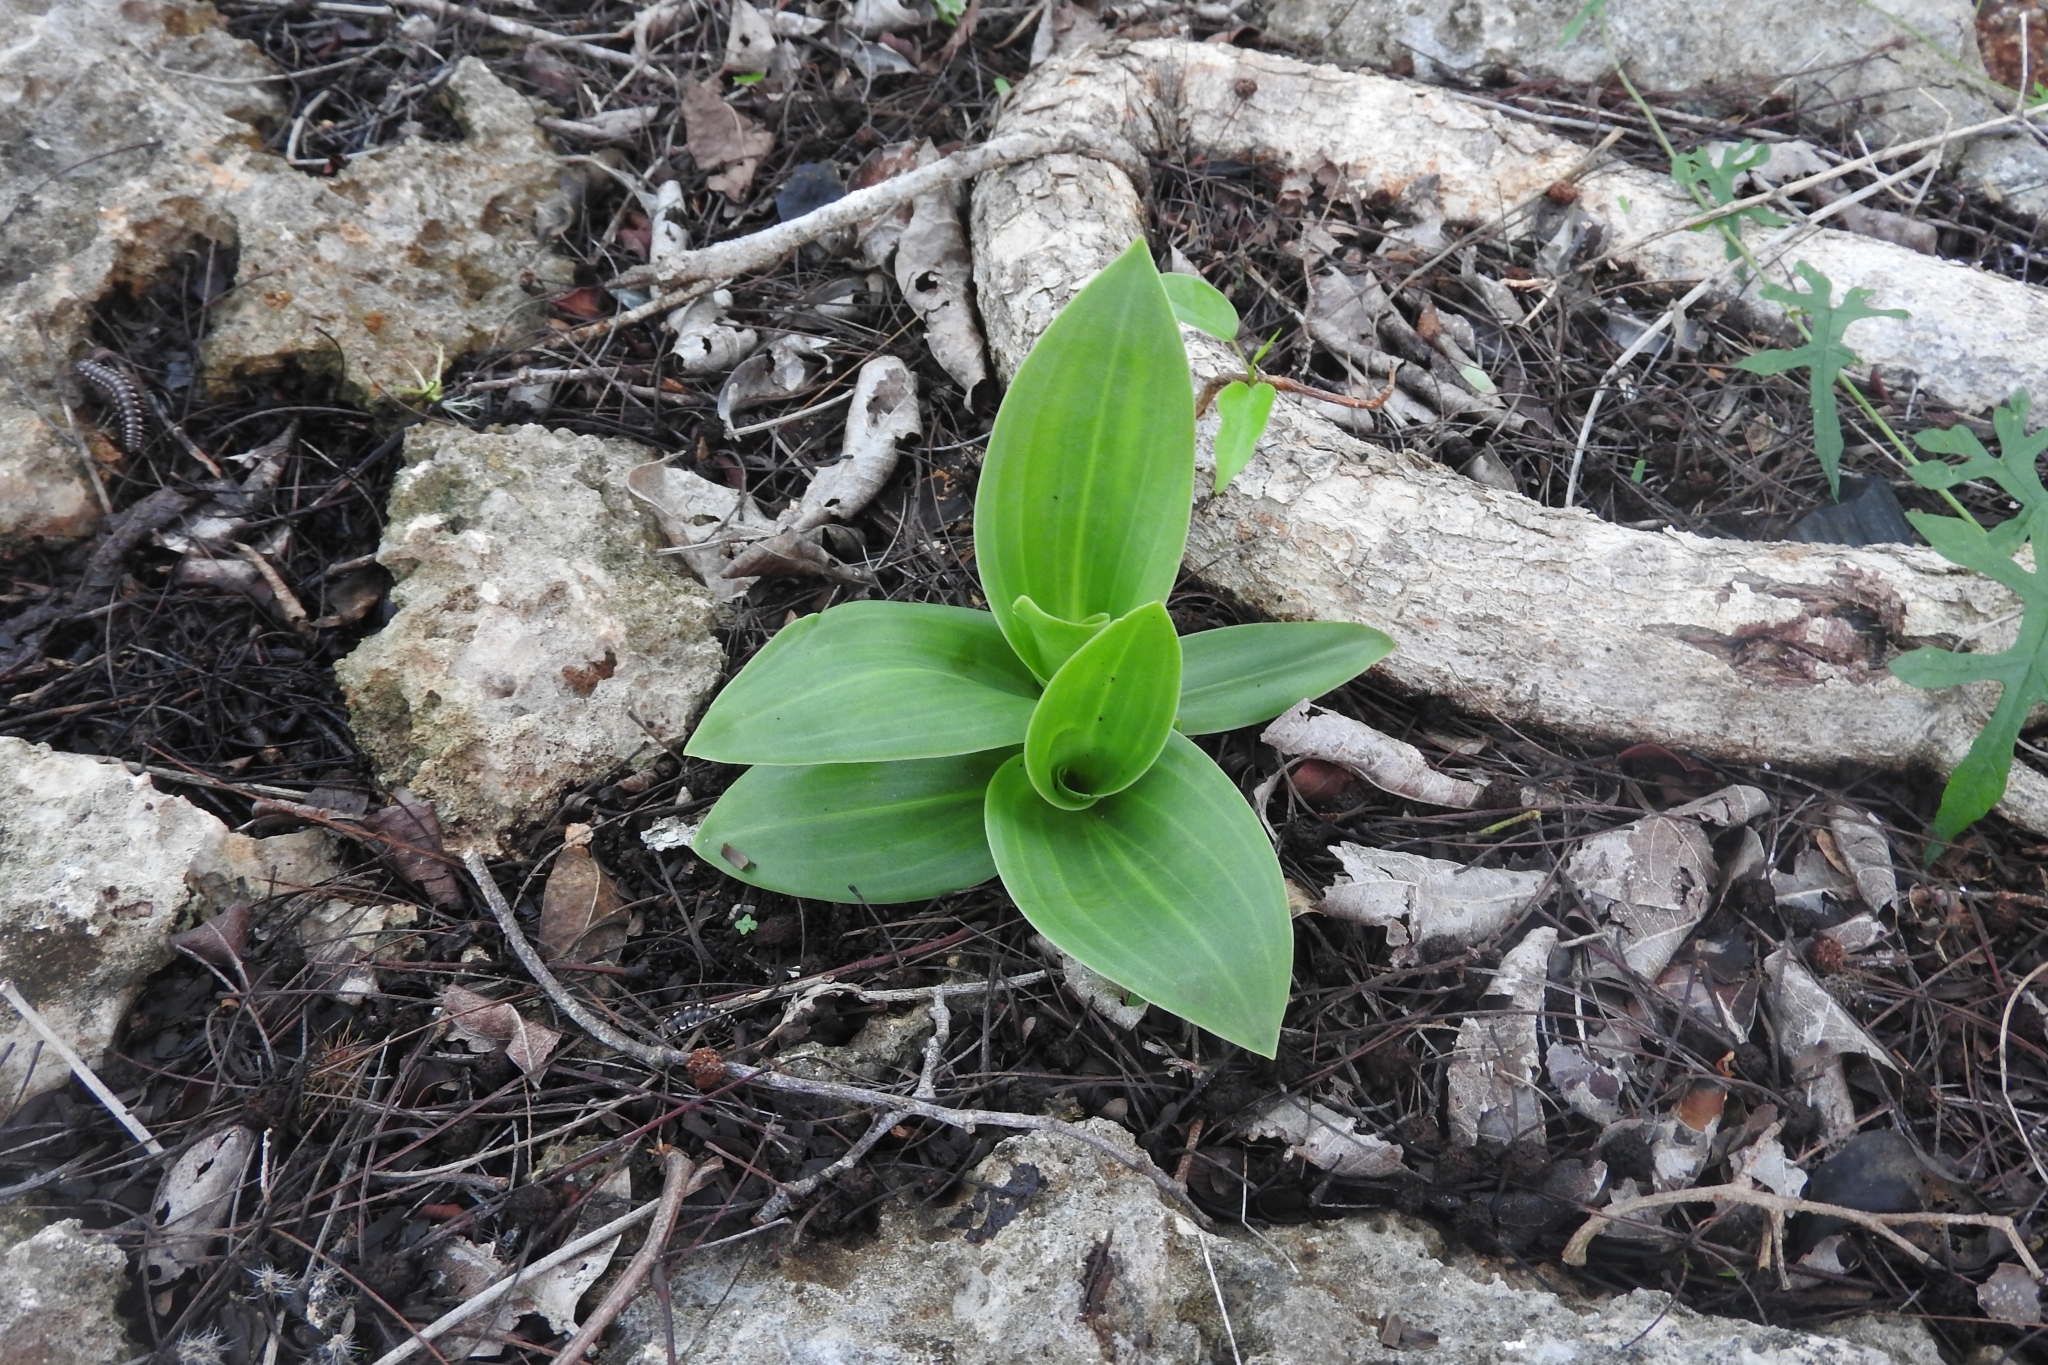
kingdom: Plantae
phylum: Tracheophyta
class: Liliopsida
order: Commelinales
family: Commelinaceae
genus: Callisia
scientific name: Callisia fragrans
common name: Basketplant
